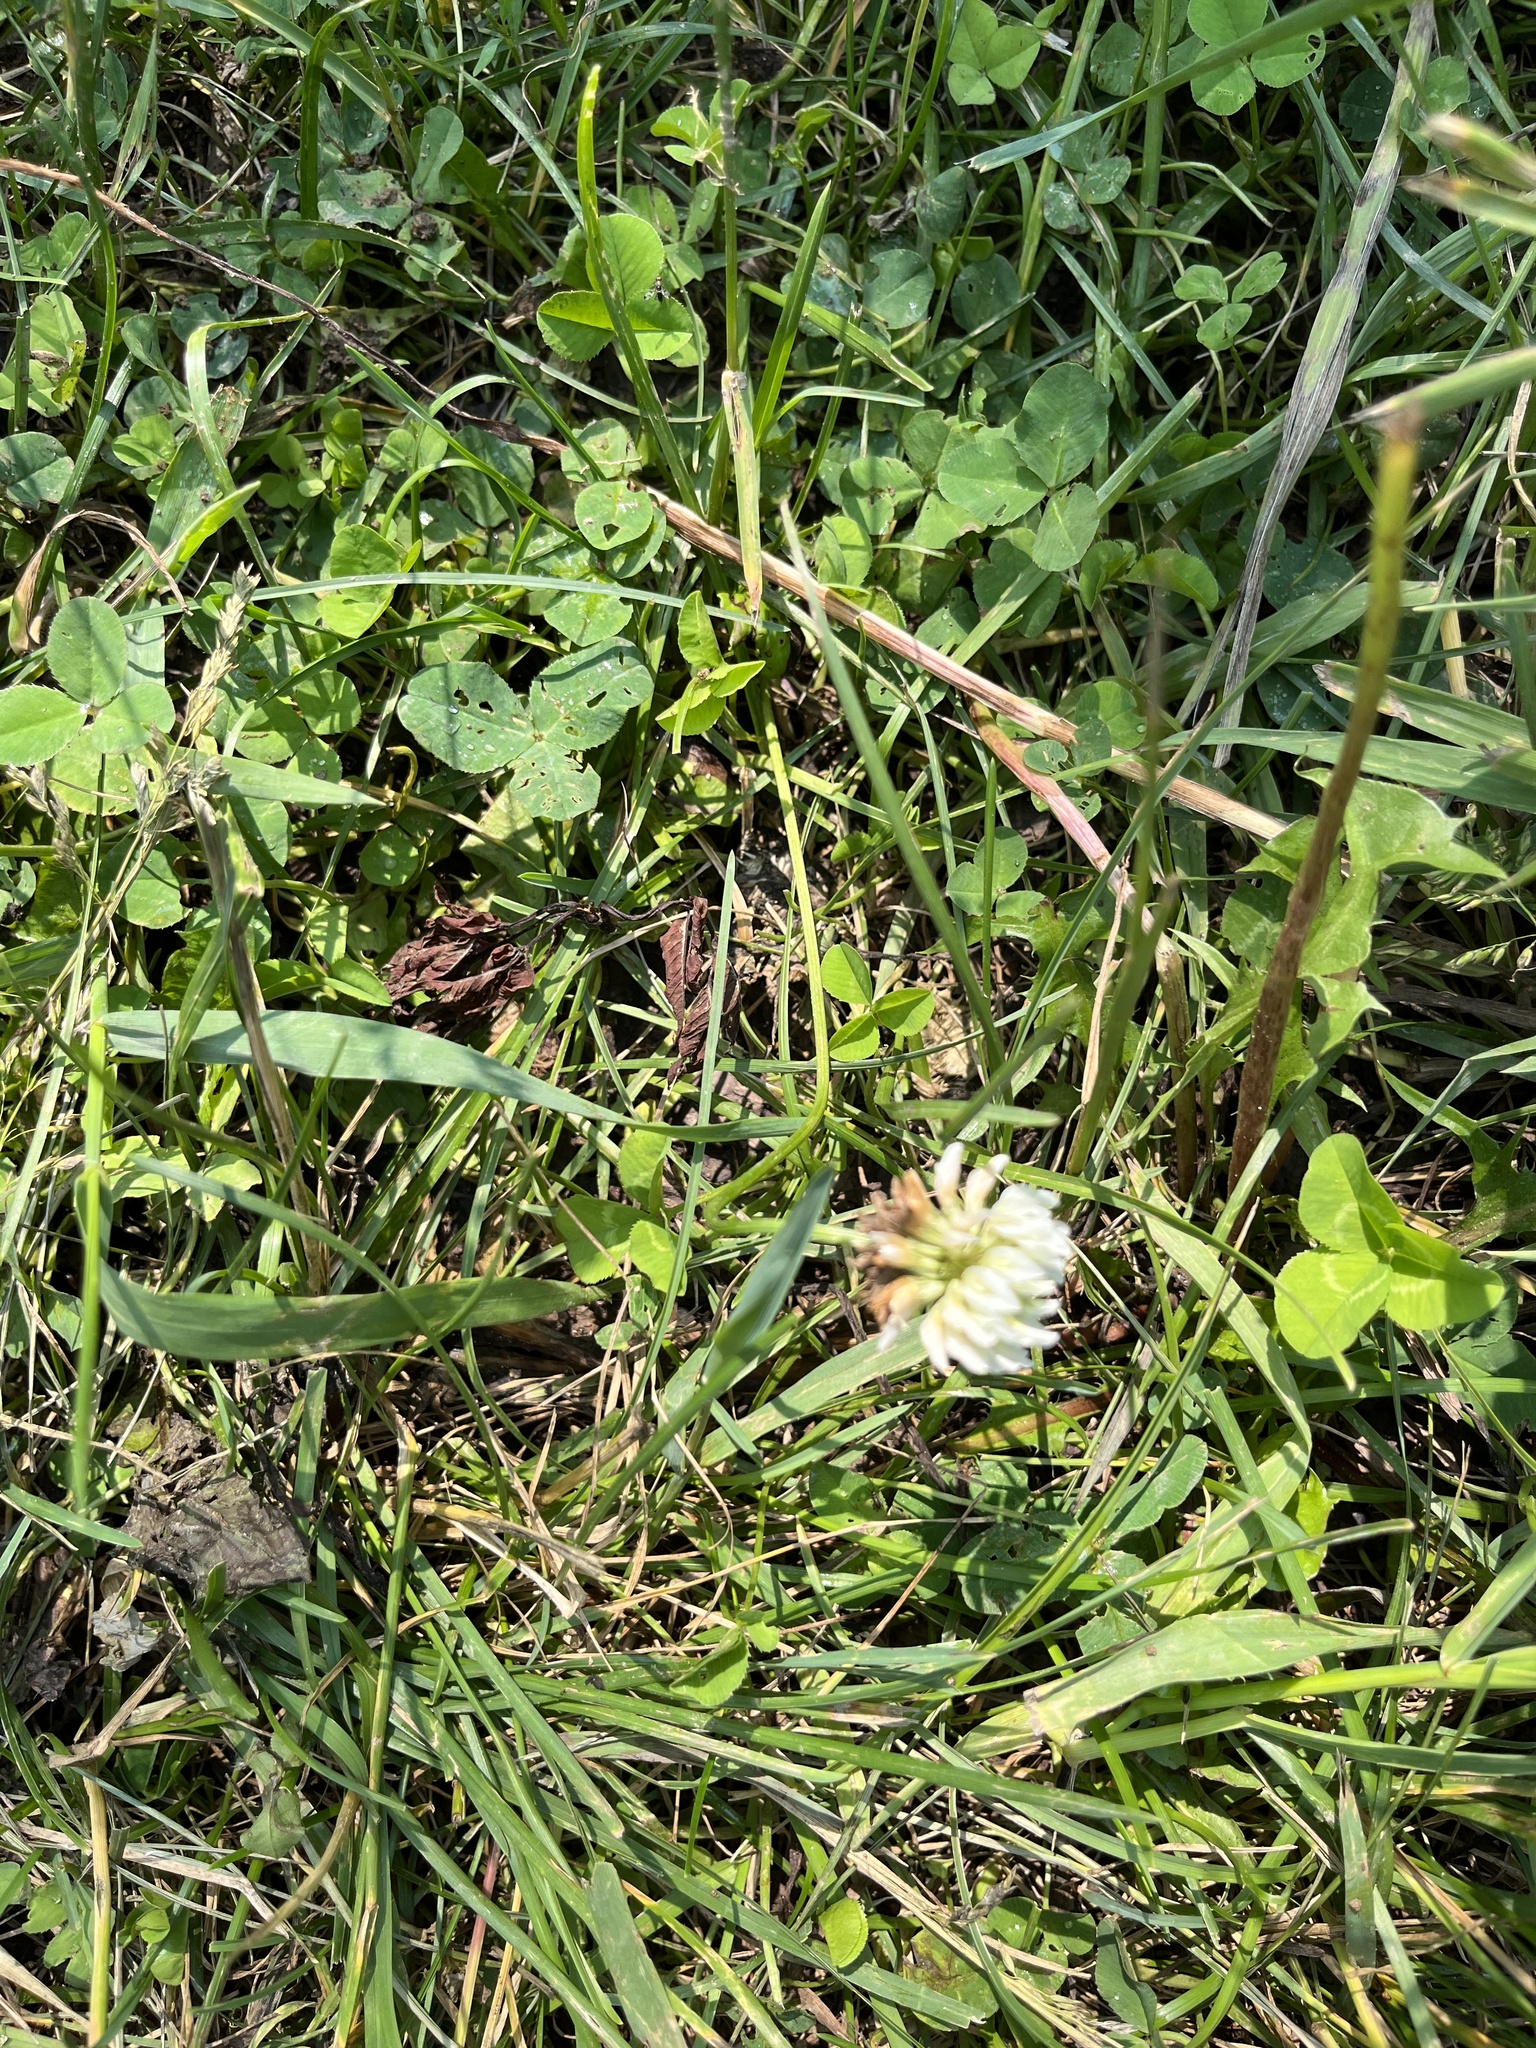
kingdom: Plantae
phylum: Tracheophyta
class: Magnoliopsida
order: Fabales
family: Fabaceae
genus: Trifolium
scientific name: Trifolium repens
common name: White clover
